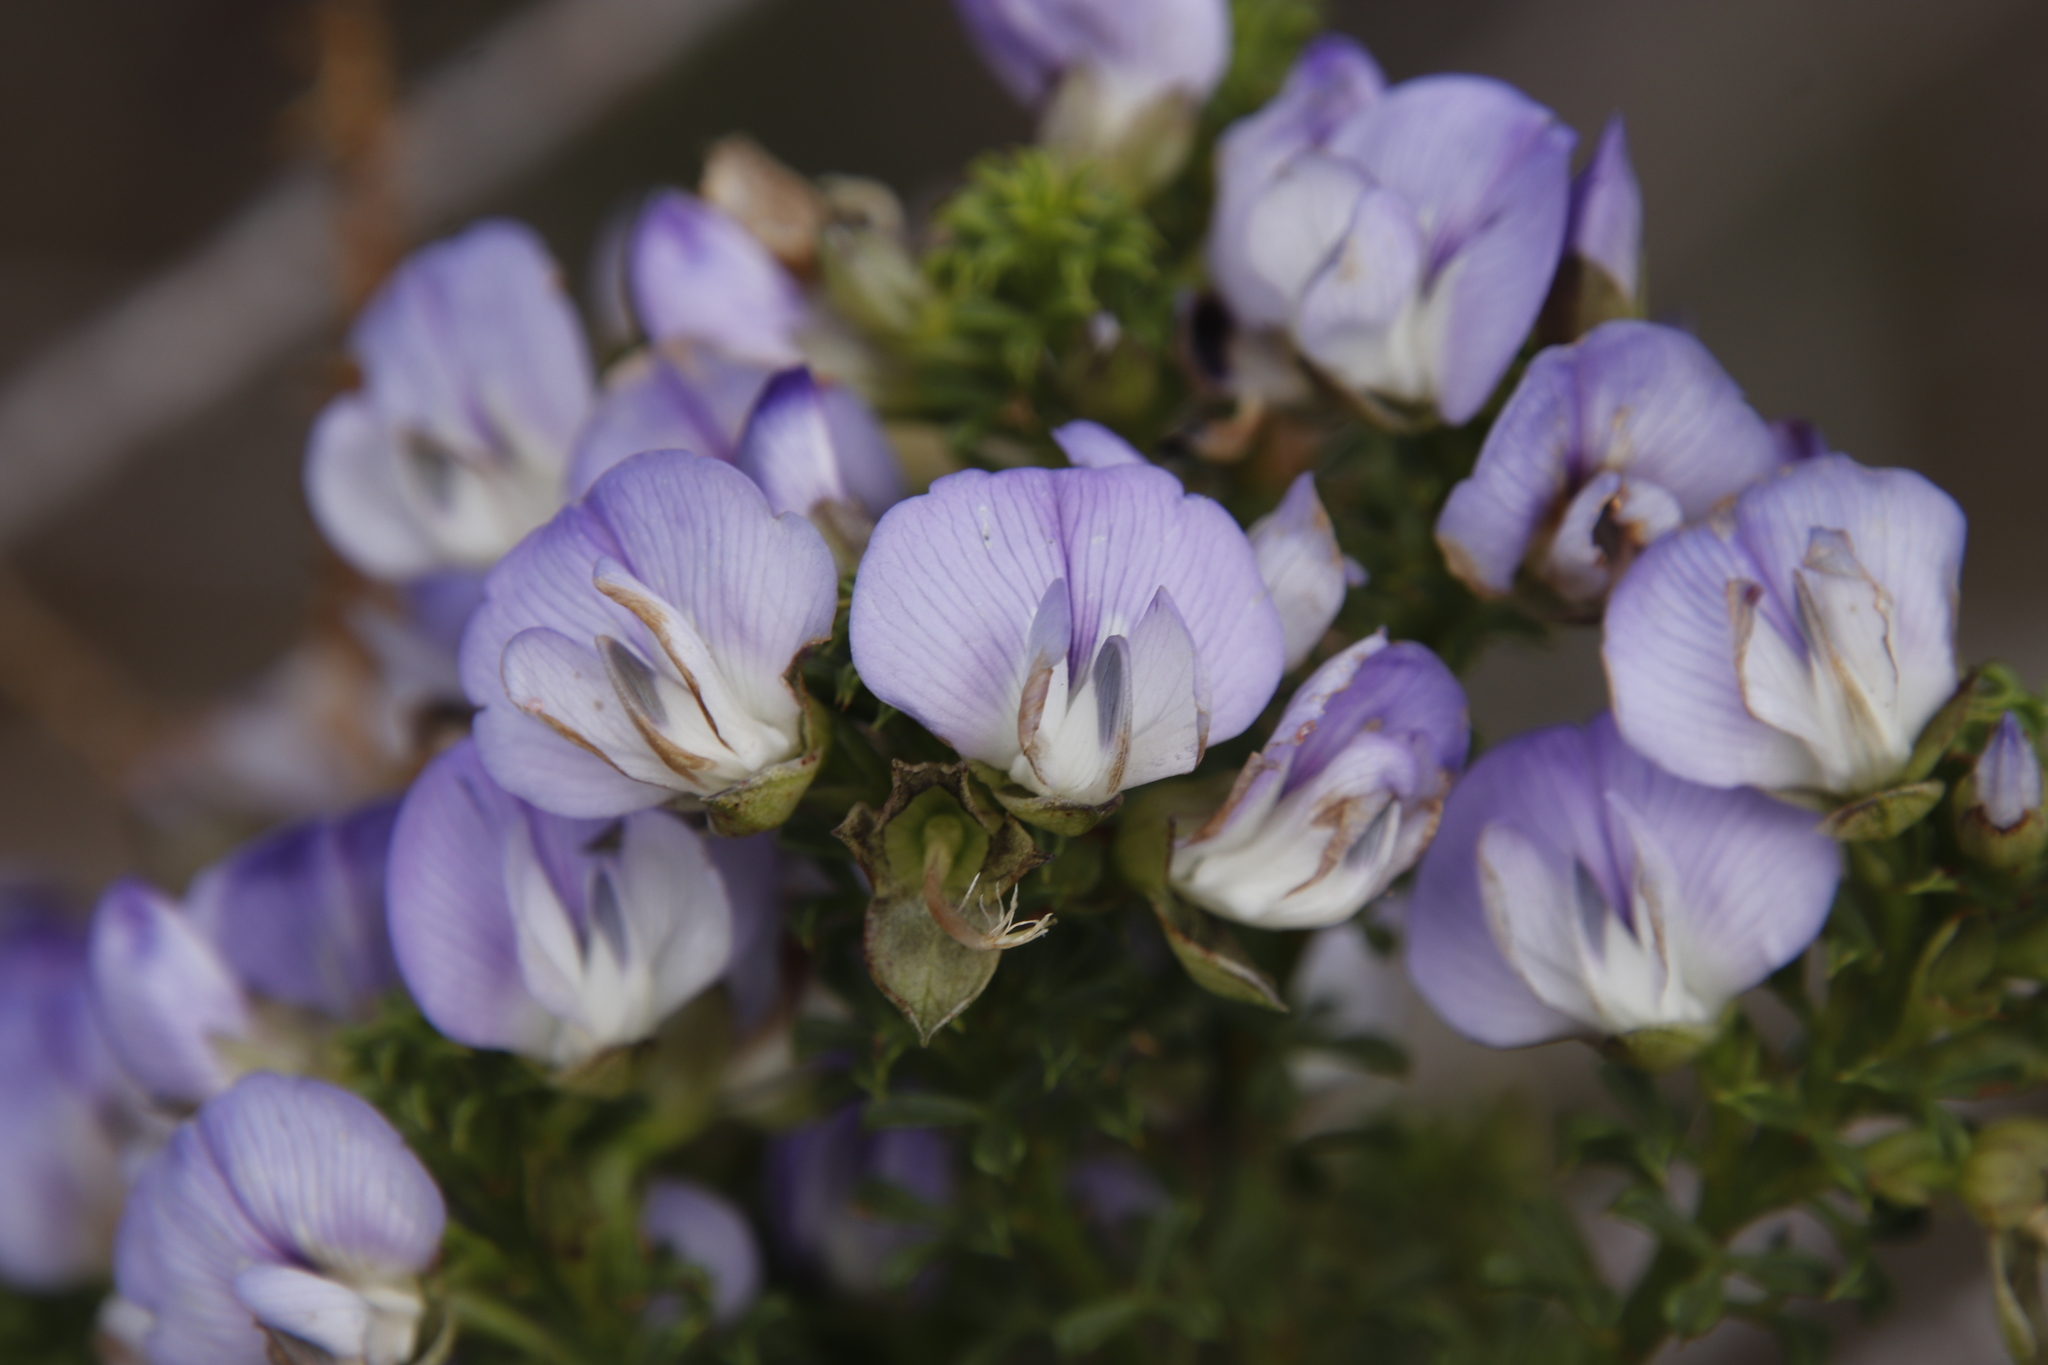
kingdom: Plantae
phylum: Tracheophyta
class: Magnoliopsida
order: Fabales
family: Fabaceae
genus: Psoralea
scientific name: Psoralea aculeata
